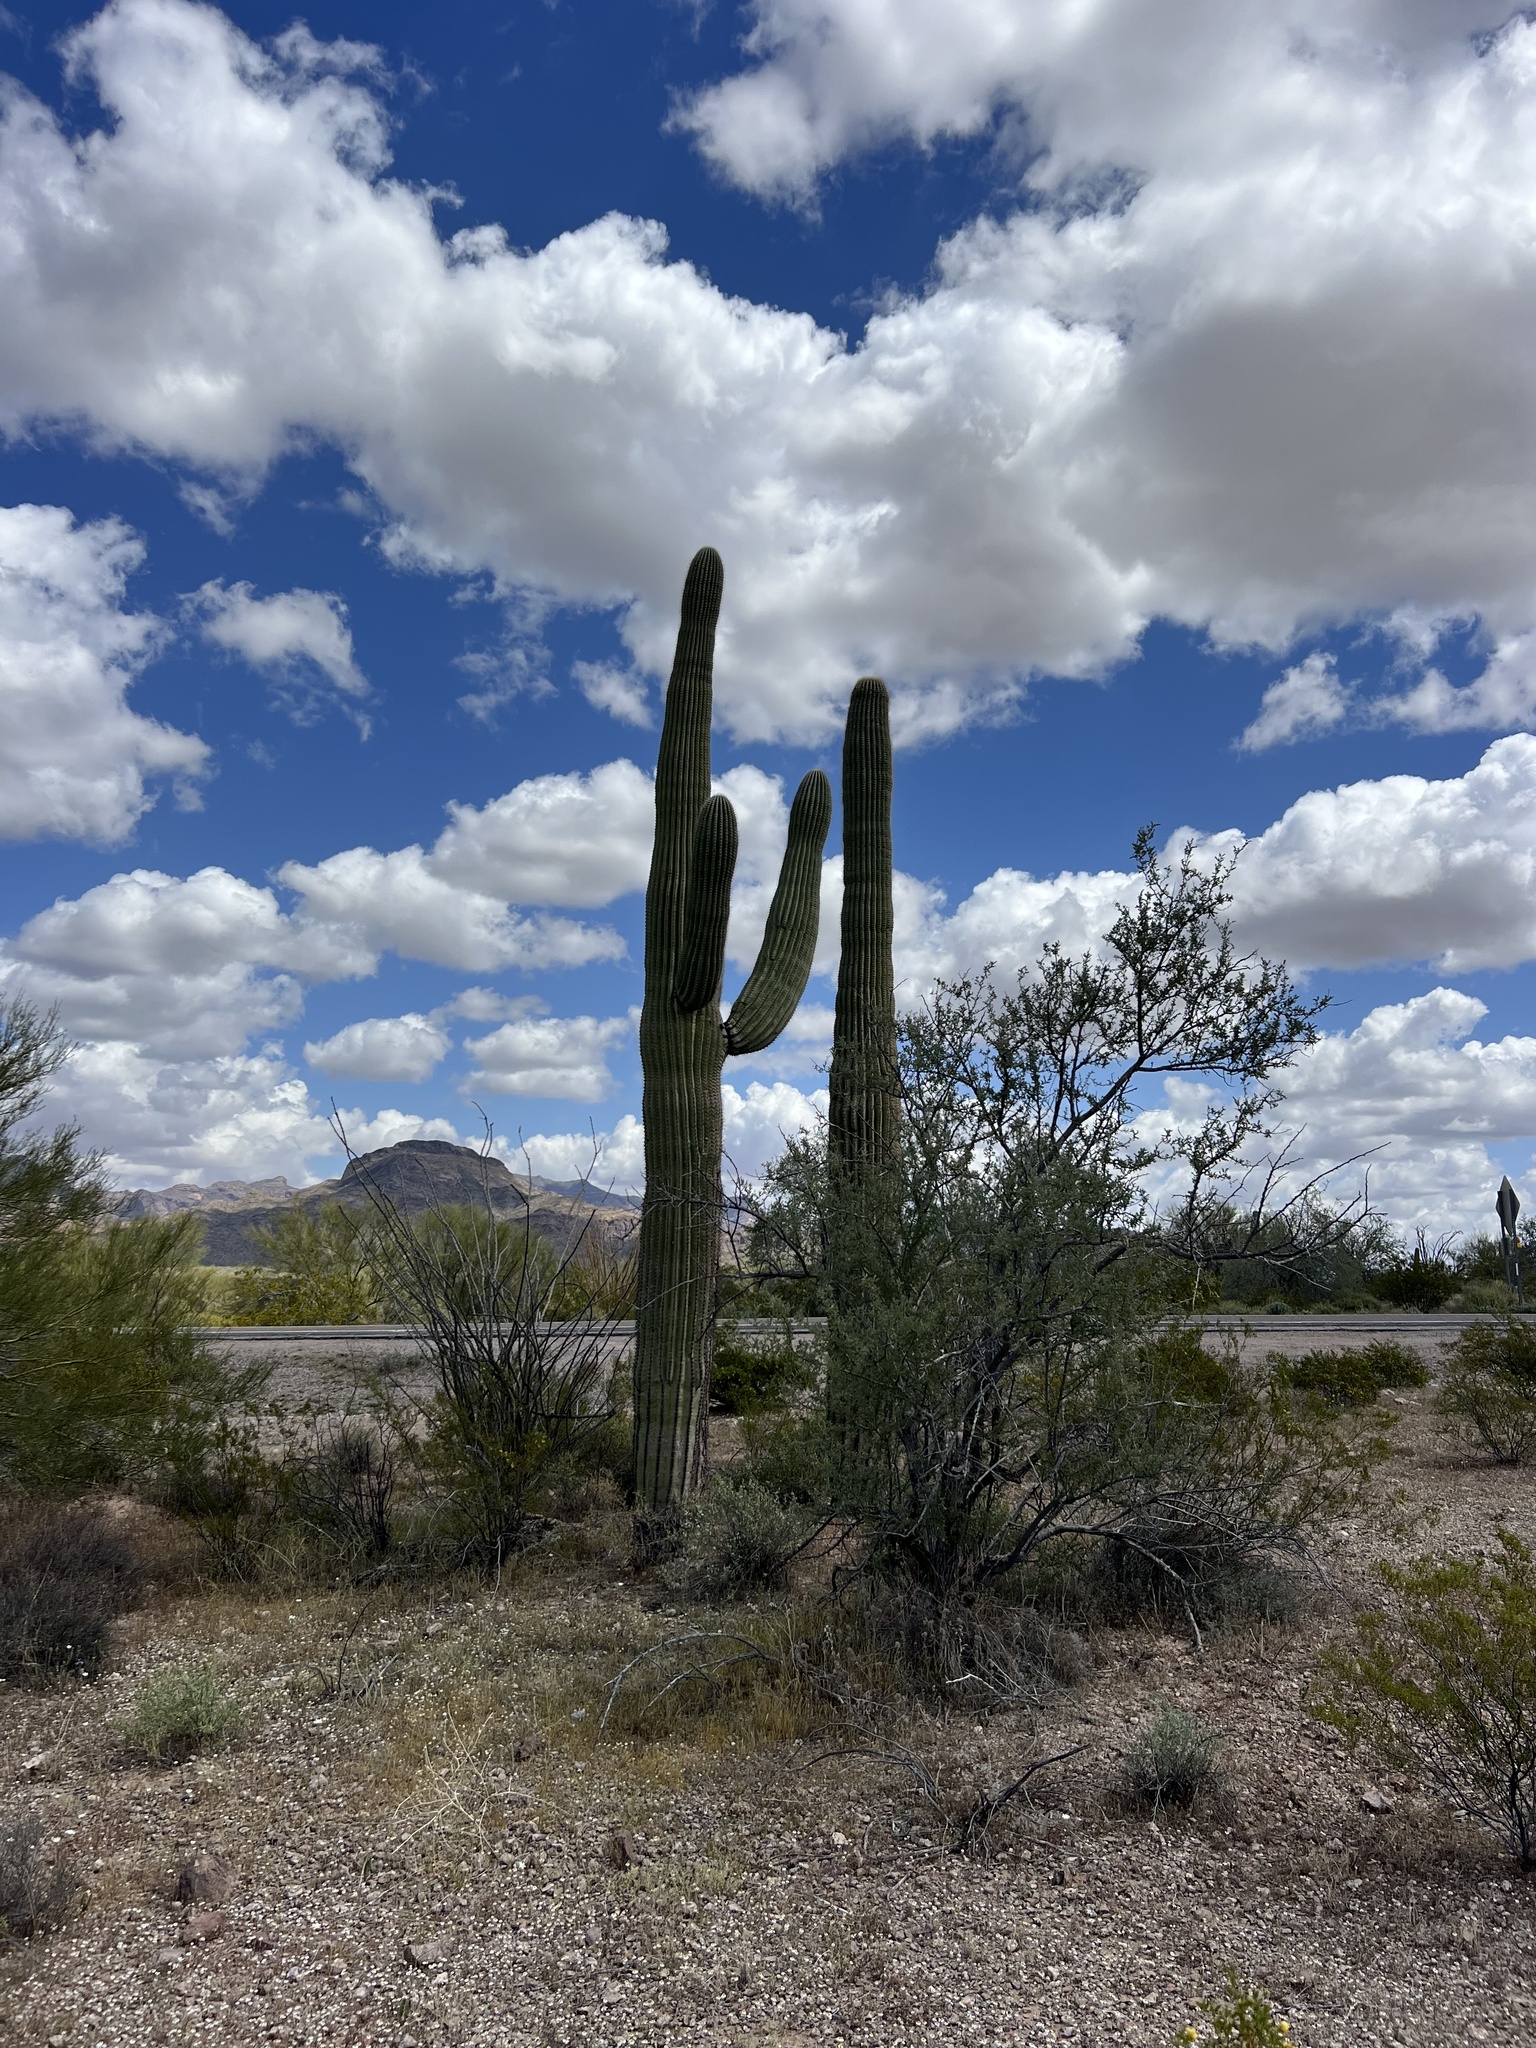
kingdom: Plantae
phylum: Tracheophyta
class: Magnoliopsida
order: Caryophyllales
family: Cactaceae
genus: Carnegiea
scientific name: Carnegiea gigantea
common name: Saguaro
